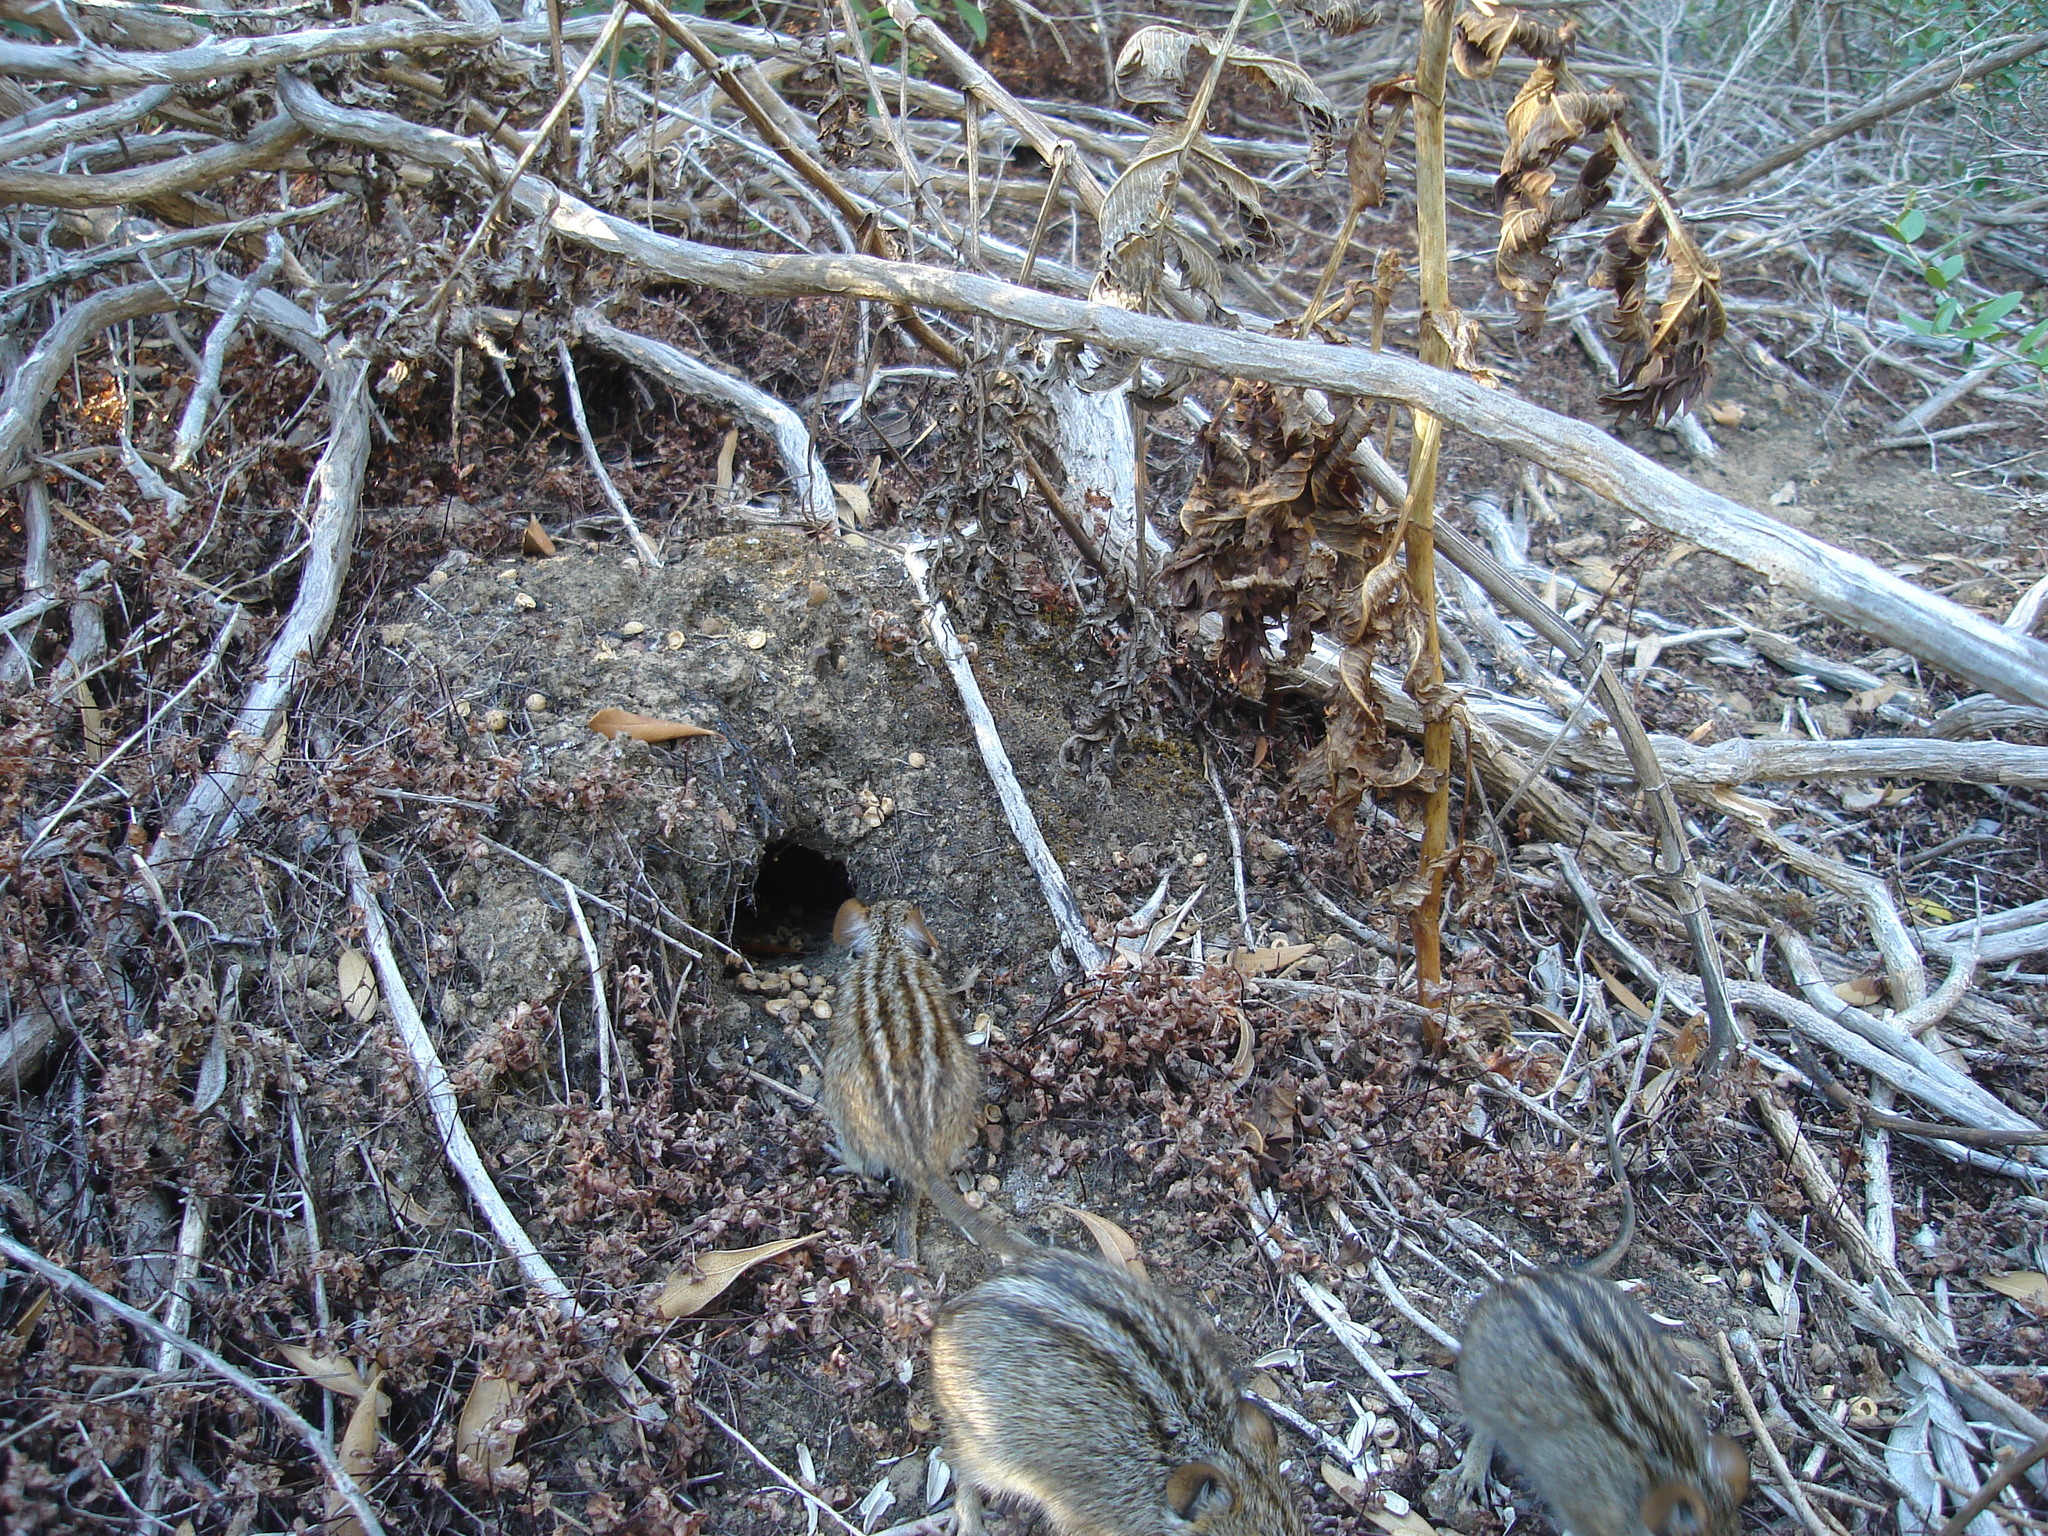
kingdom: Animalia
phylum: Chordata
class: Mammalia
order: Rodentia
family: Muridae
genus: Rhabdomys
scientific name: Rhabdomys pumilio
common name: Xeric four-striped grass rat
